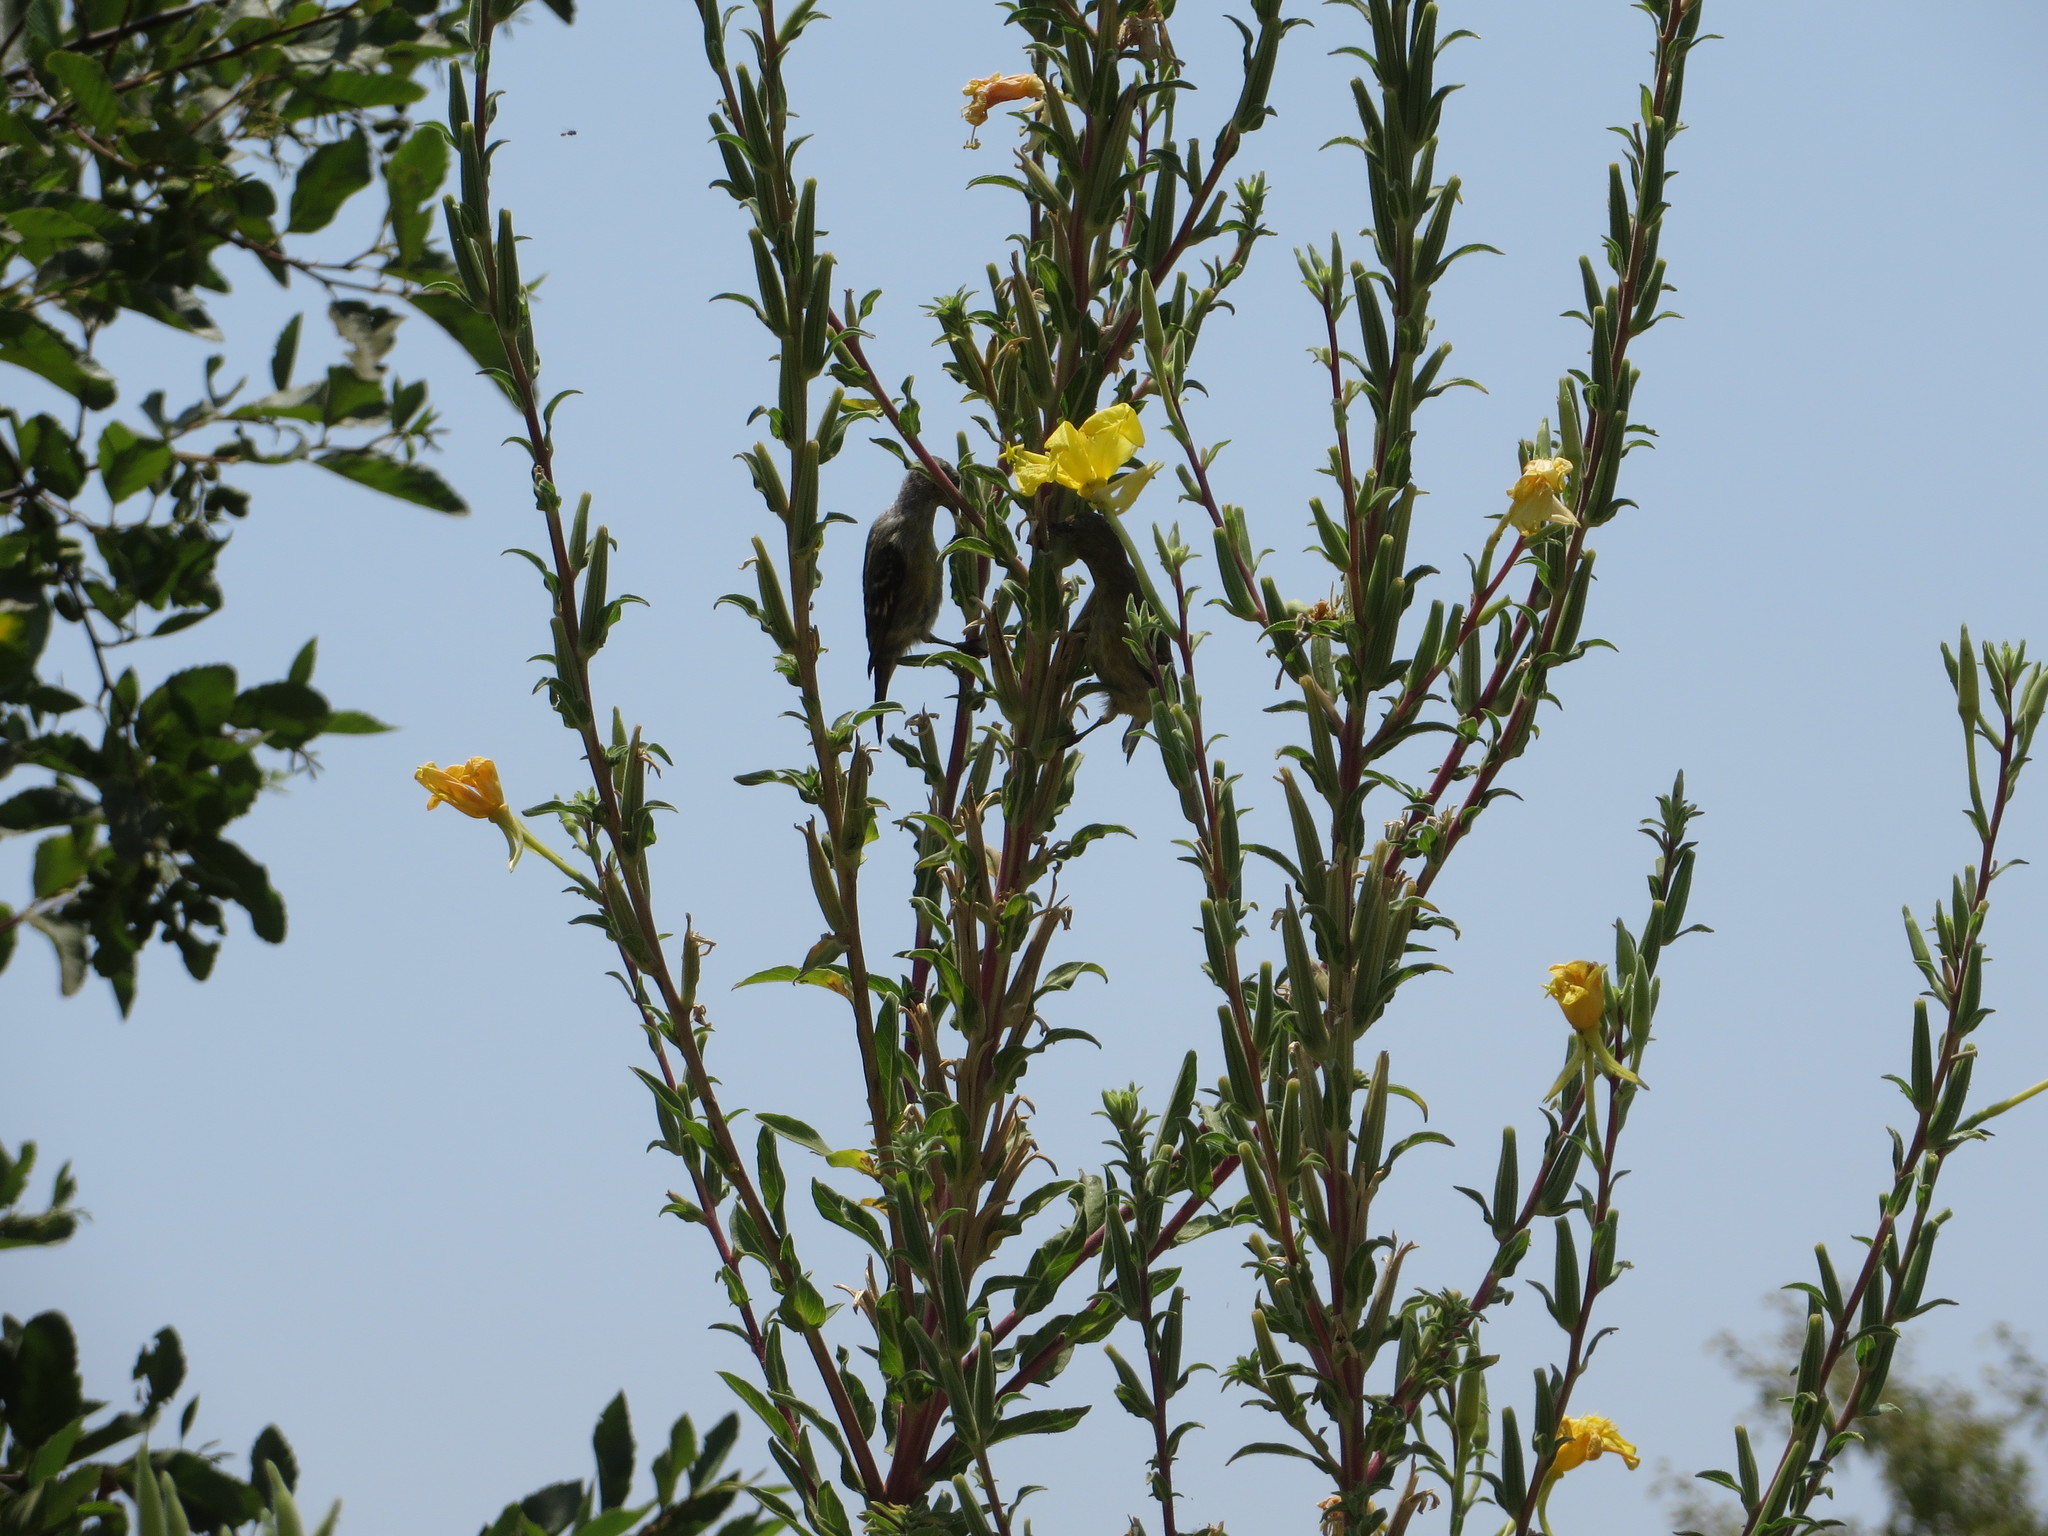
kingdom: Animalia
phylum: Chordata
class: Aves
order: Passeriformes
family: Fringillidae
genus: Spinus
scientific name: Spinus psaltria
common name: Lesser goldfinch
